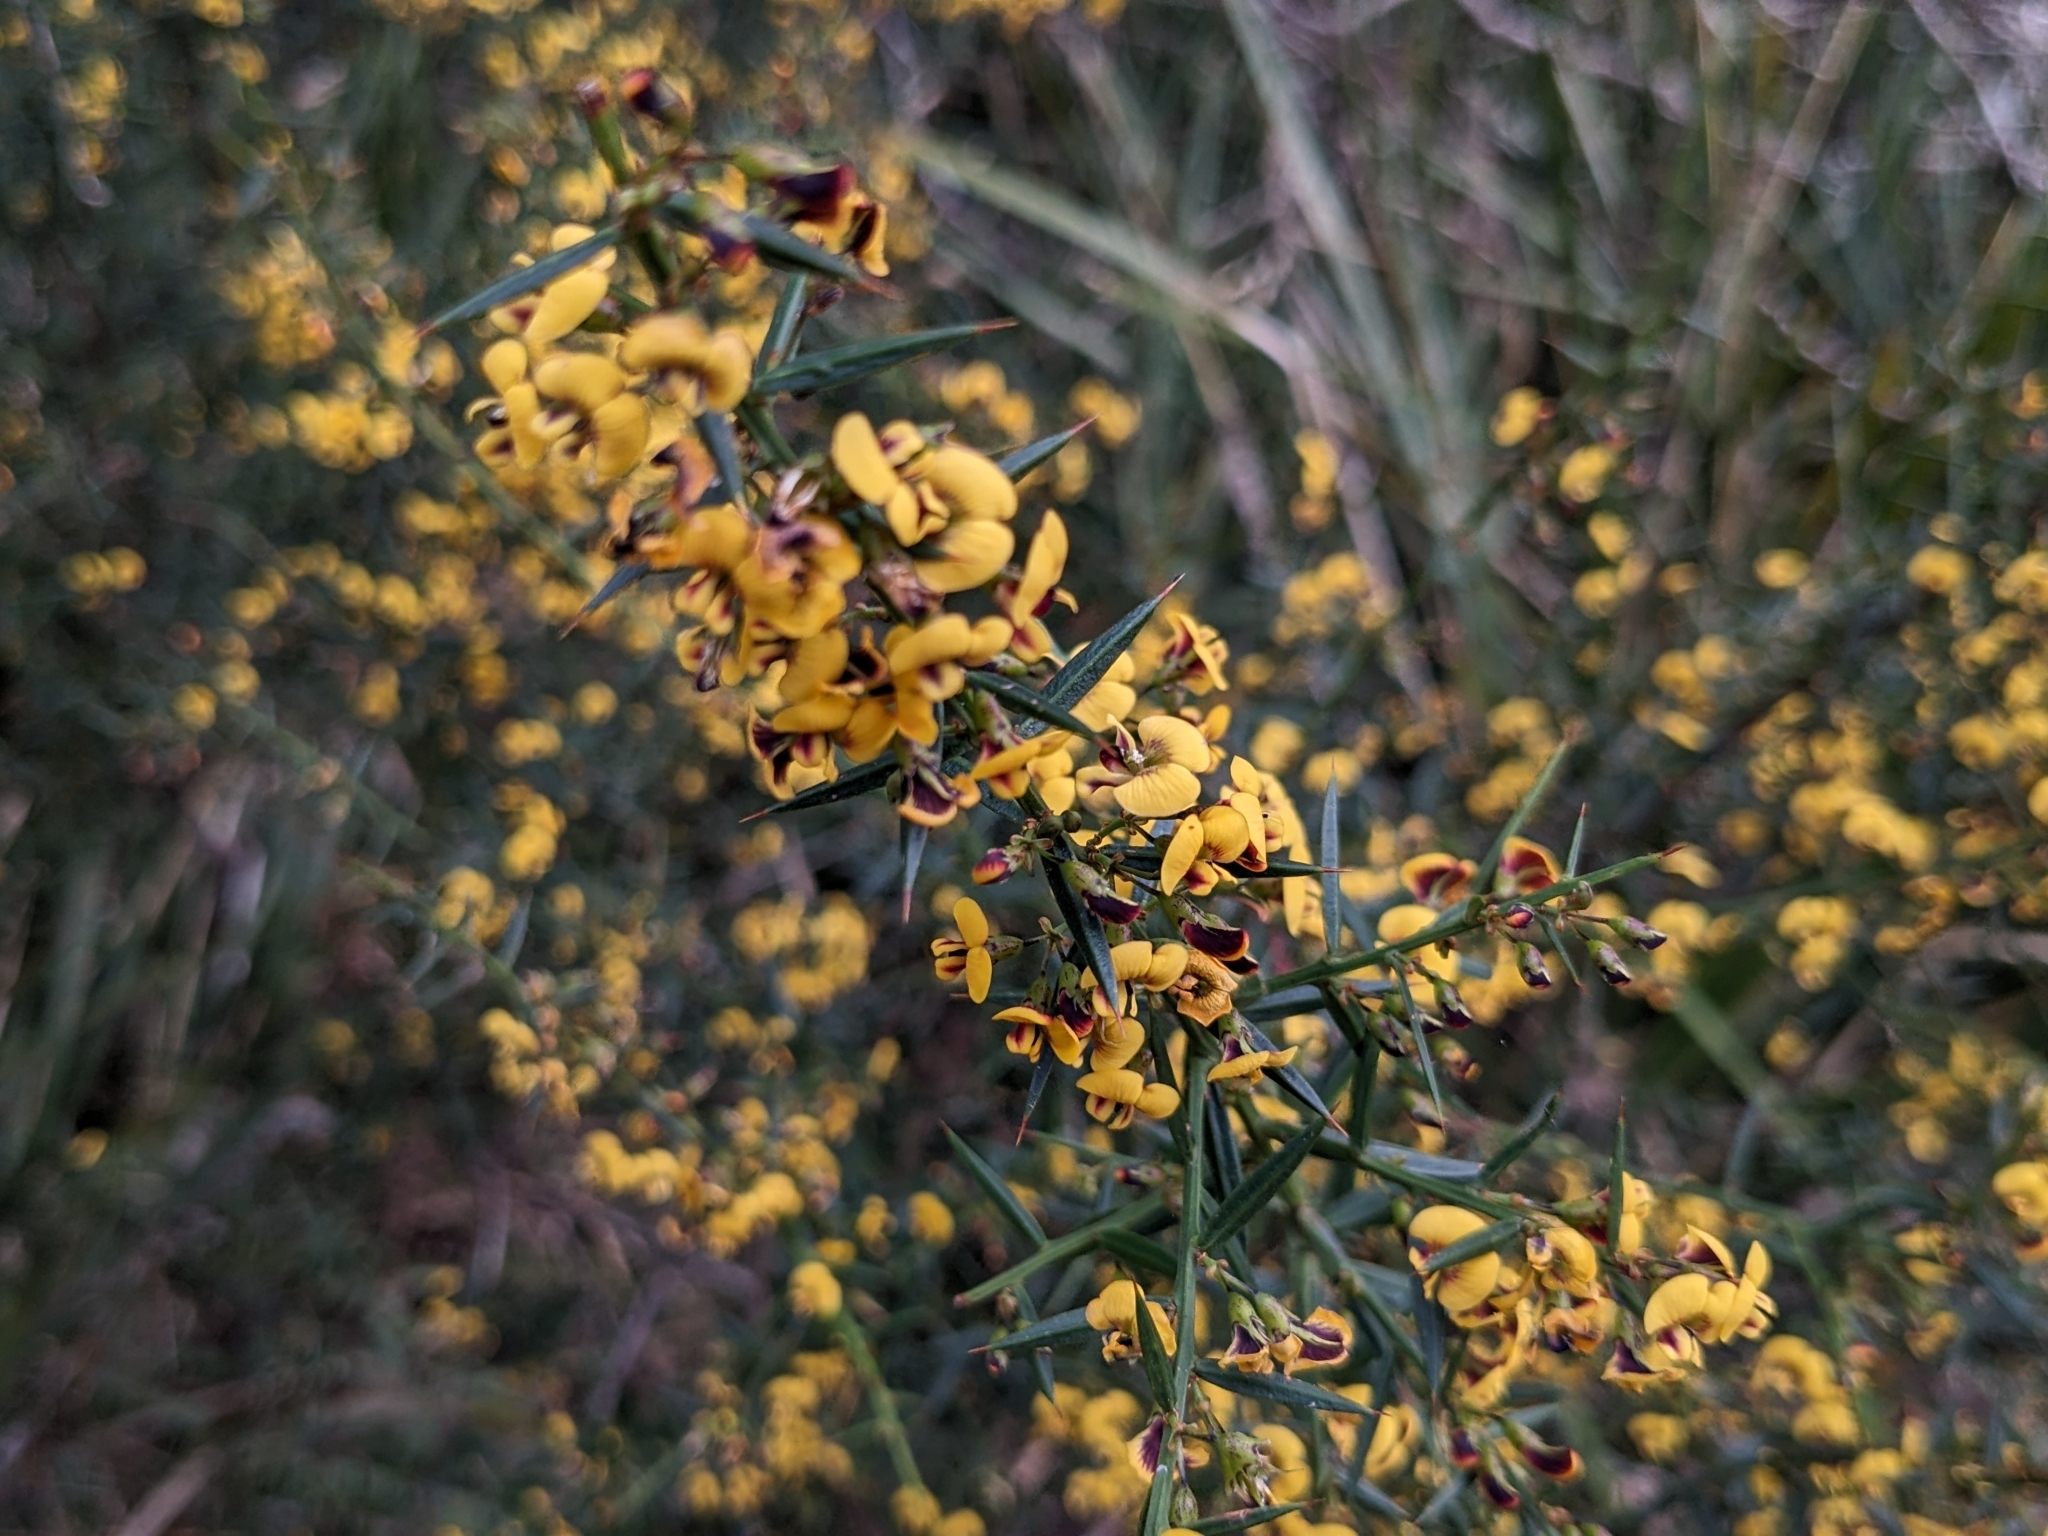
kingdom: Plantae
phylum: Tracheophyta
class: Magnoliopsida
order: Fabales
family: Fabaceae
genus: Daviesia
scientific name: Daviesia ulicifolia
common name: Gorse bitter-pea
